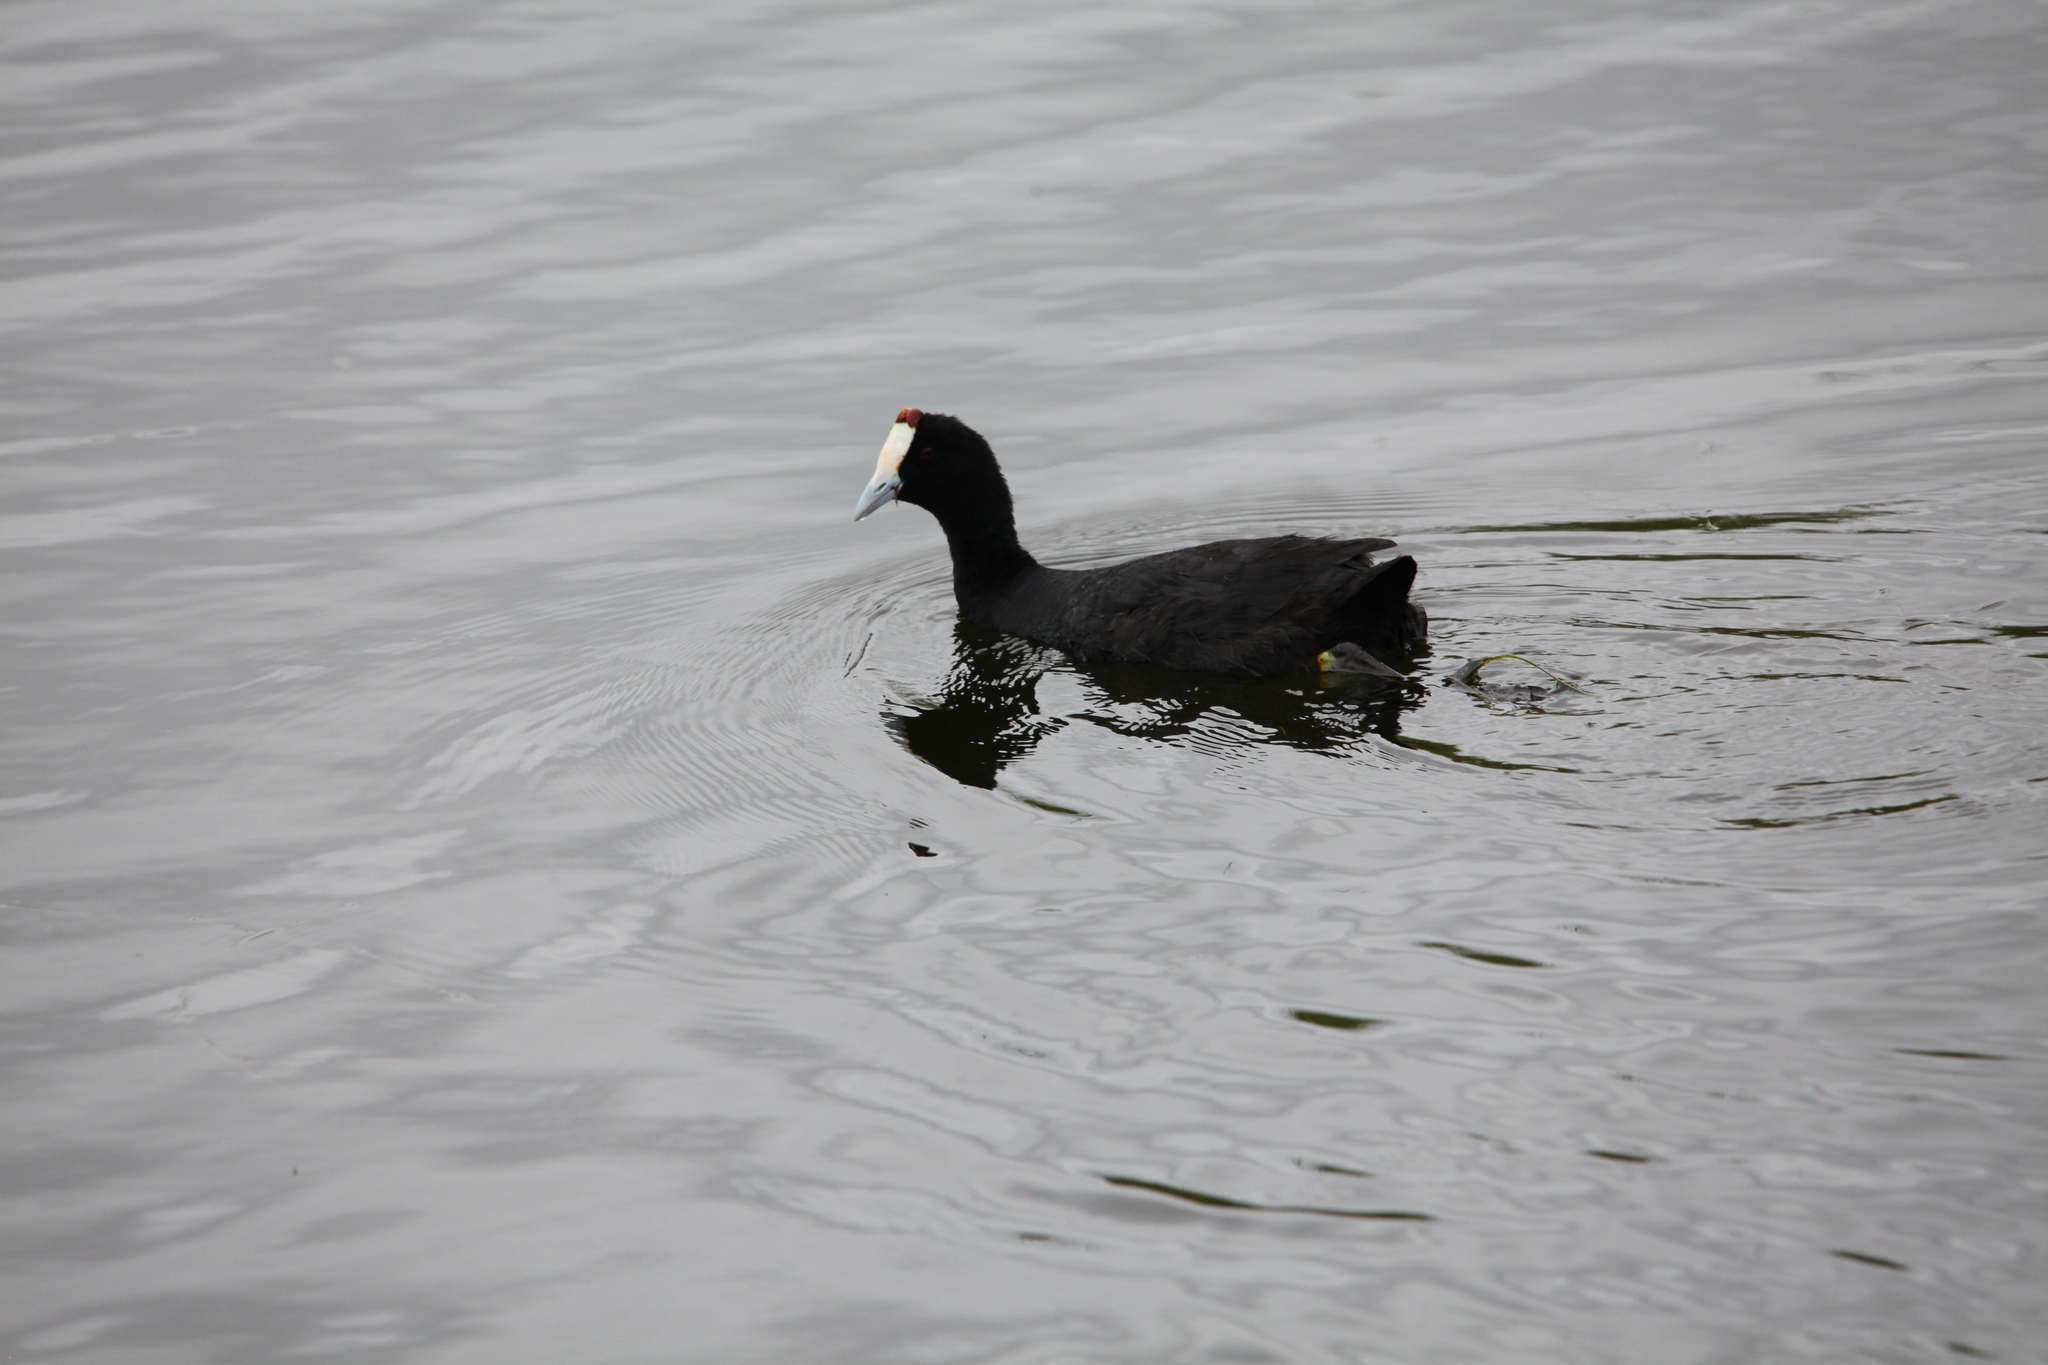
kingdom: Animalia
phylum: Chordata
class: Aves
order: Gruiformes
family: Rallidae
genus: Fulica
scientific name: Fulica cristata
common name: Red-knobbed coot
